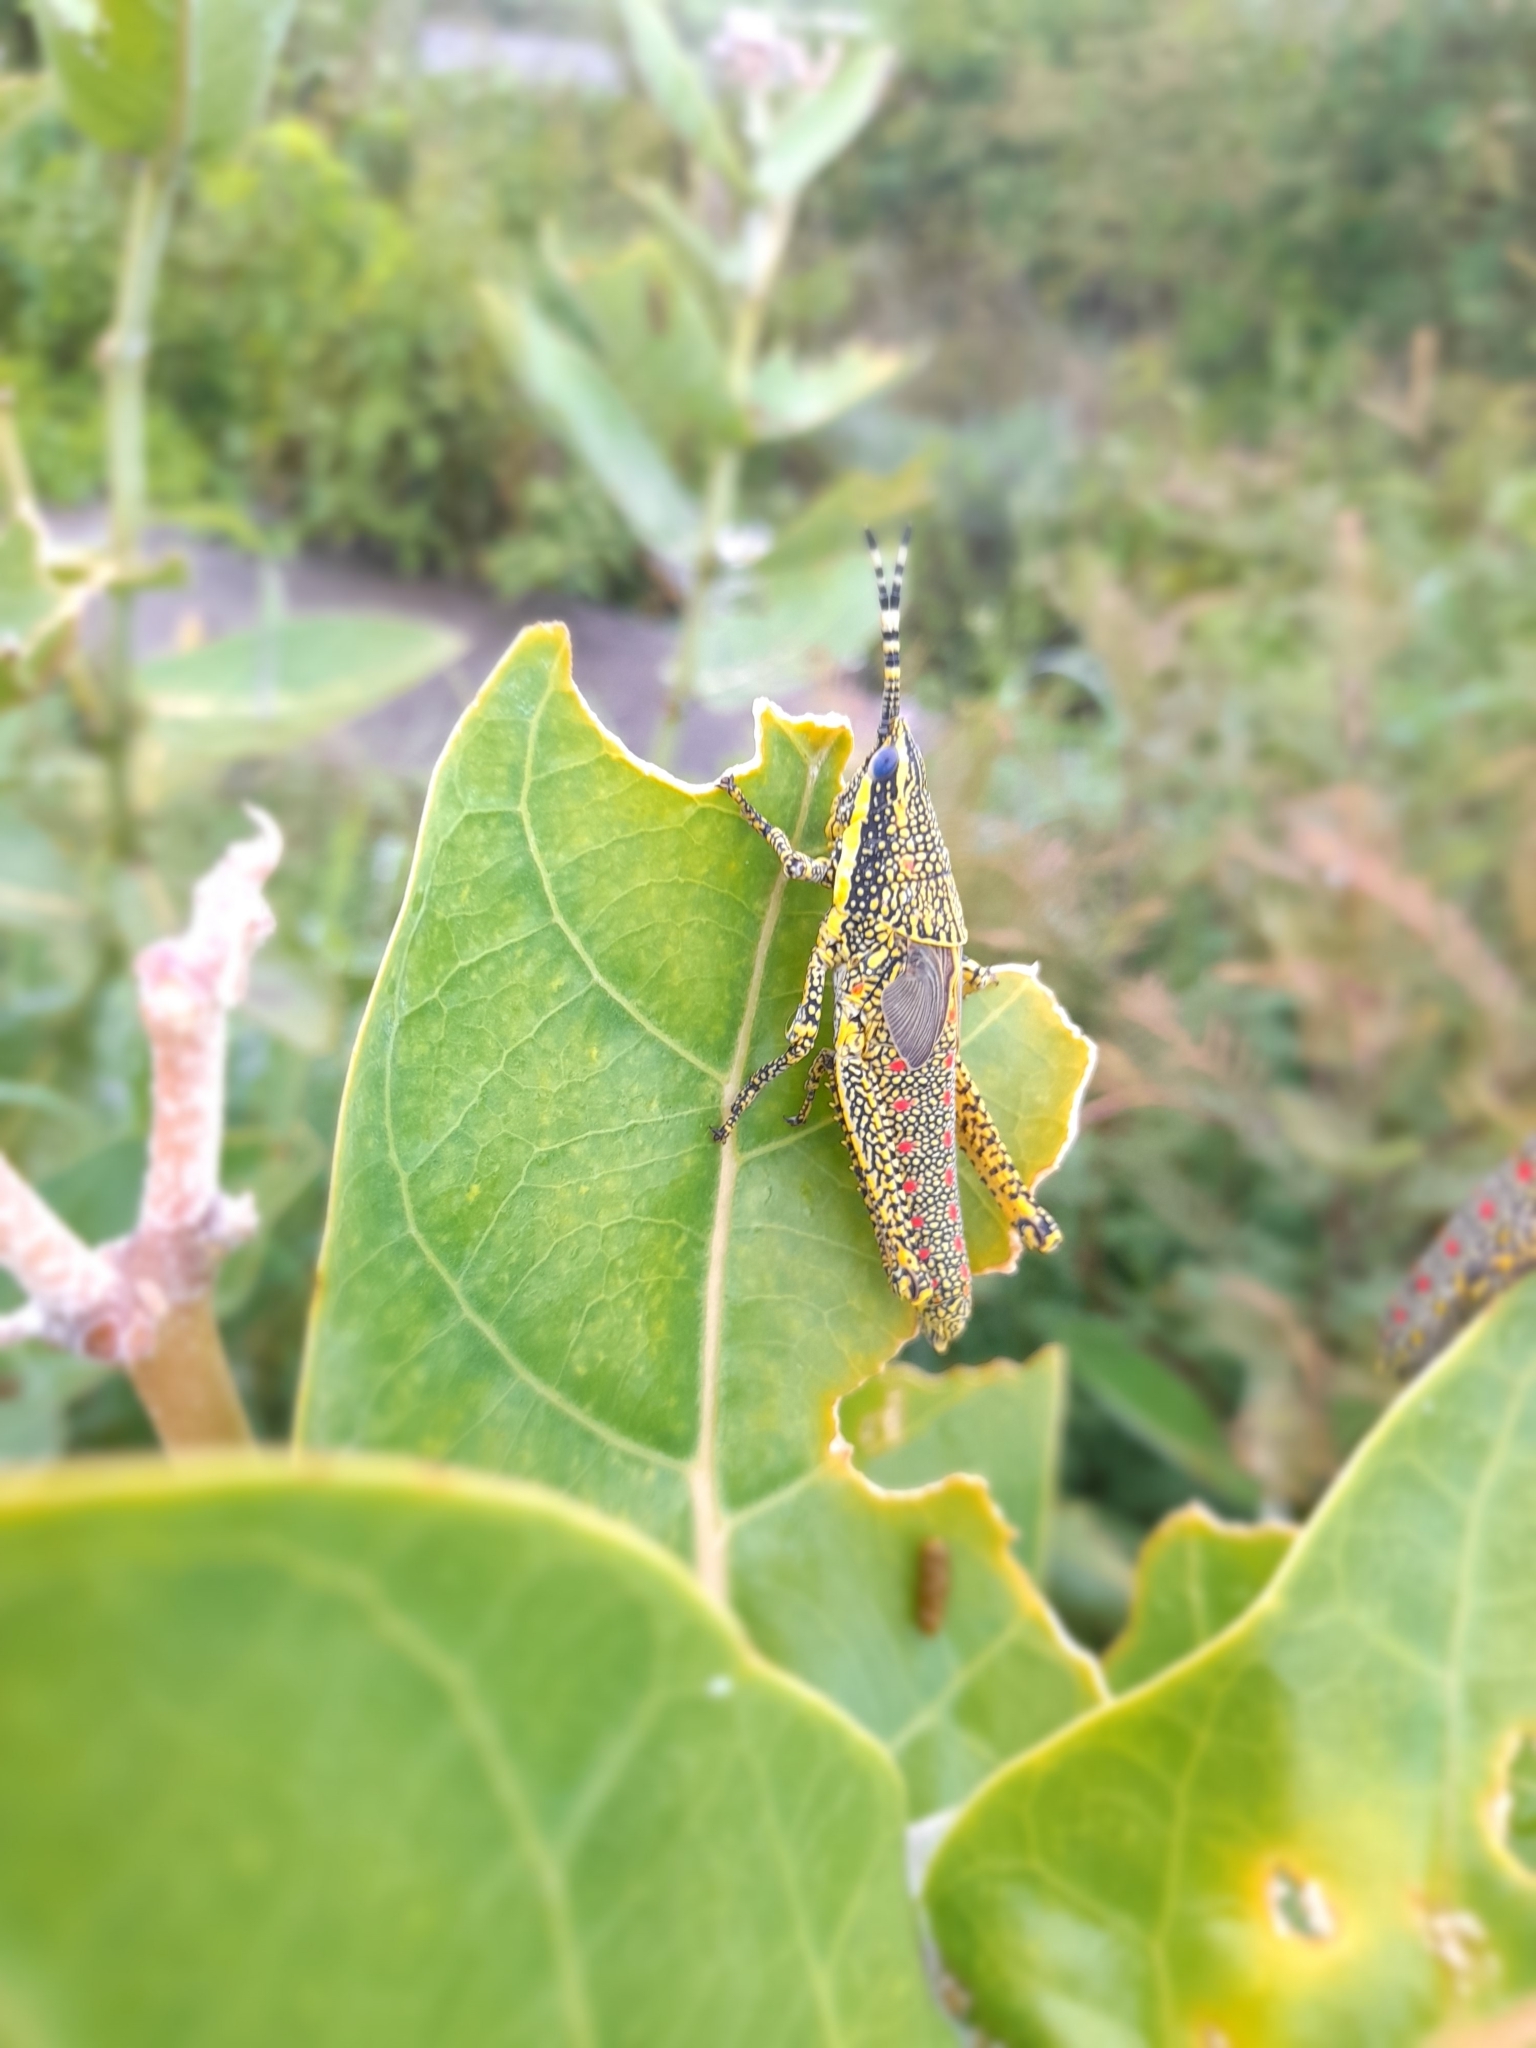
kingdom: Animalia
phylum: Arthropoda
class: Insecta
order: Orthoptera
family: Pyrgomorphidae
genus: Poekilocerus
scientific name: Poekilocerus pictus
